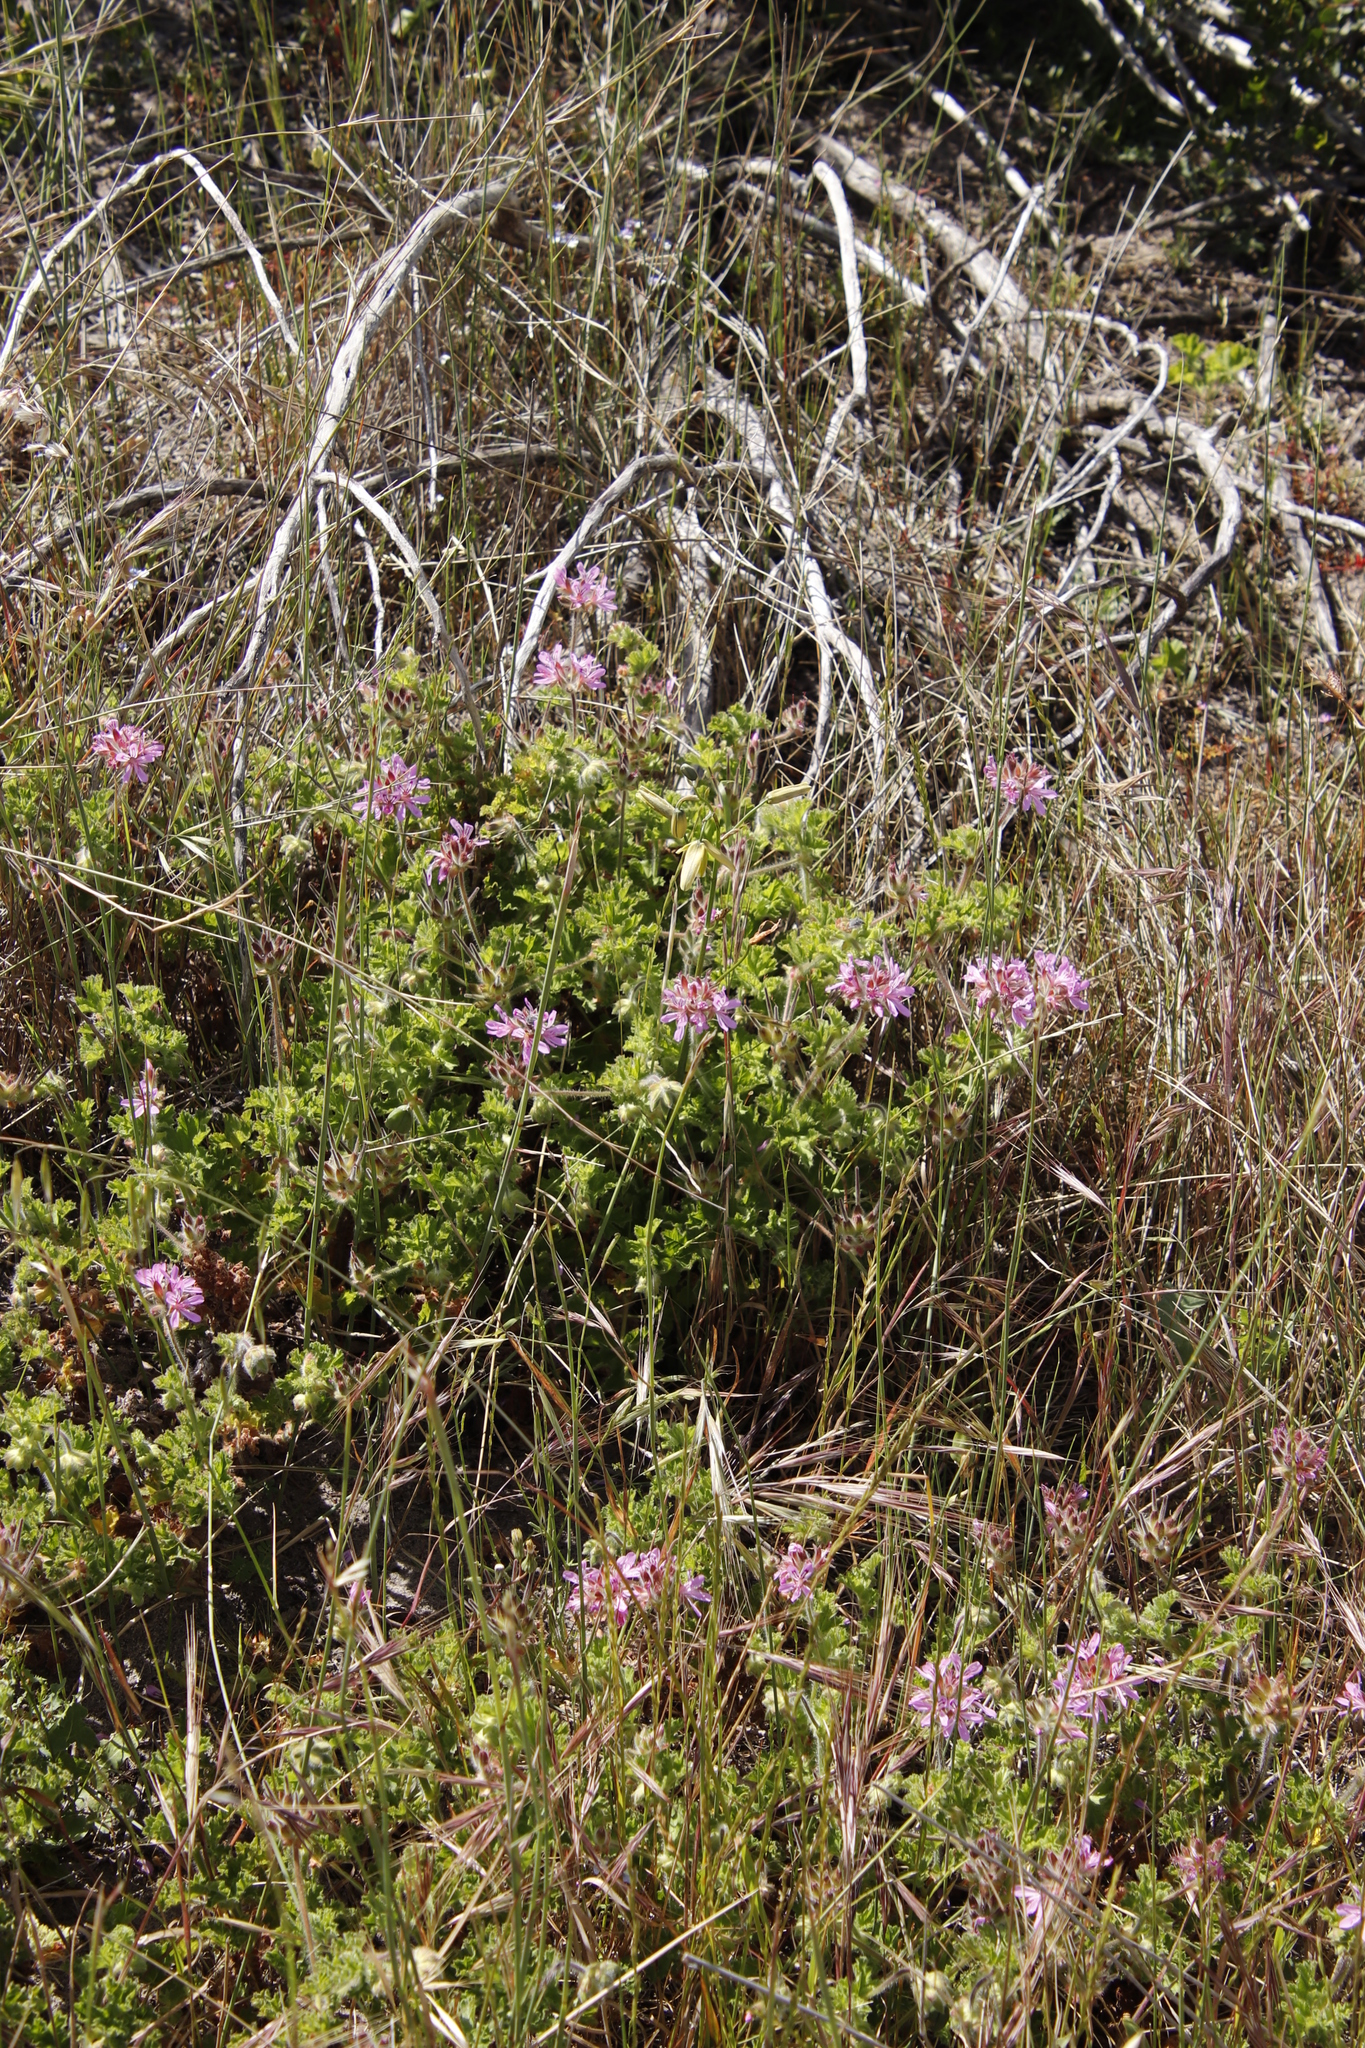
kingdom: Plantae
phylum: Tracheophyta
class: Magnoliopsida
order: Geraniales
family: Geraniaceae
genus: Pelargonium
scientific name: Pelargonium capitatum
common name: Rose scented geranium
